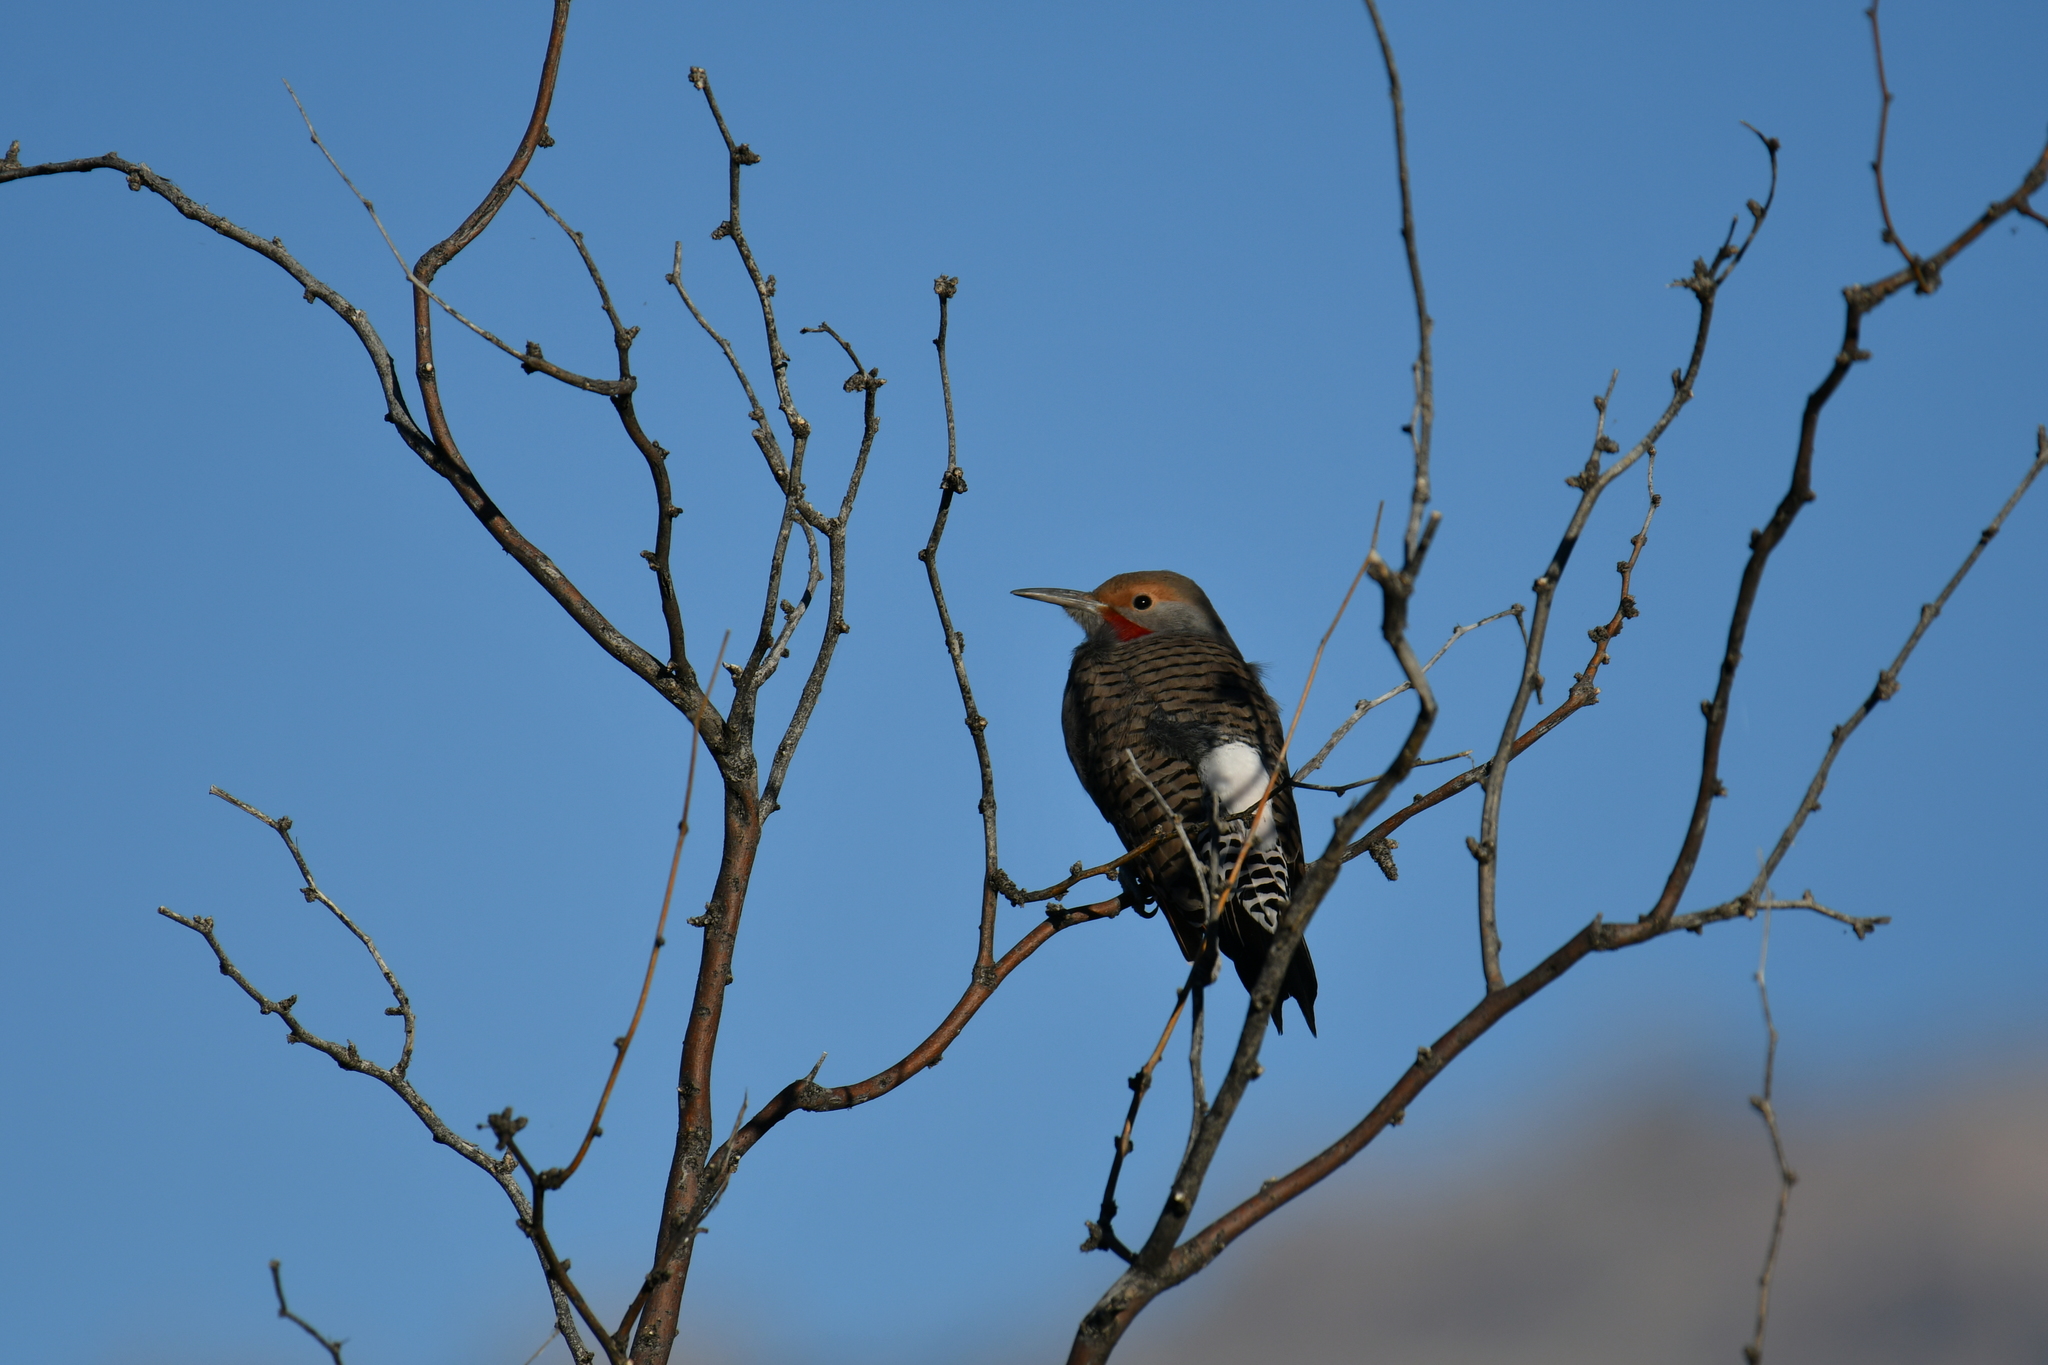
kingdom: Animalia
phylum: Chordata
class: Aves
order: Piciformes
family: Picidae
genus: Colaptes
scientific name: Colaptes auratus
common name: Northern flicker
